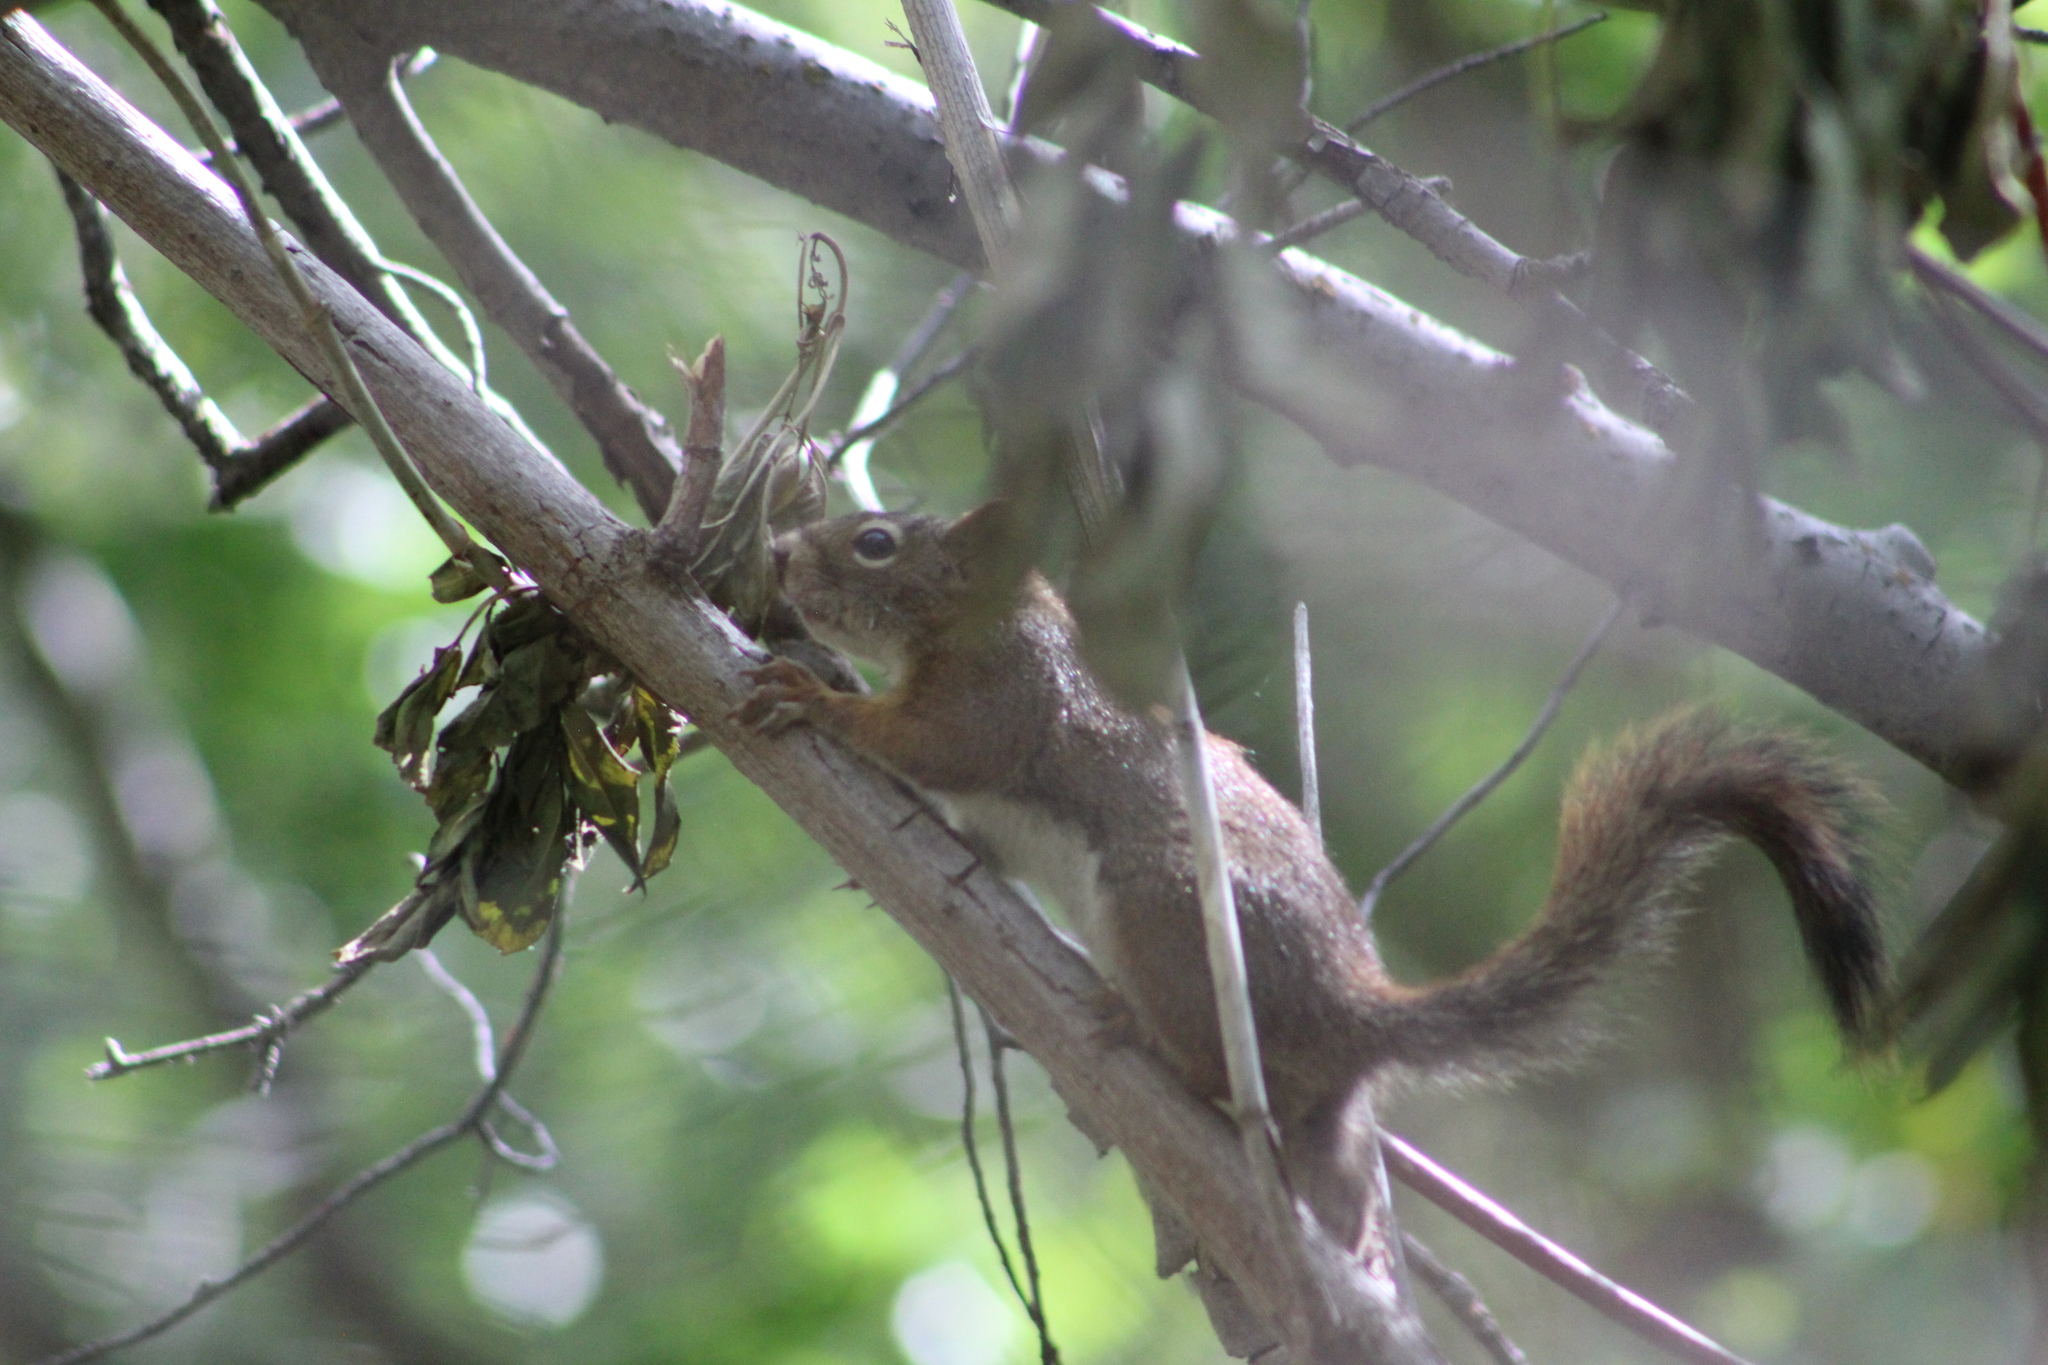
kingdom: Animalia
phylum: Chordata
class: Mammalia
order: Rodentia
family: Sciuridae
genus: Tamiasciurus
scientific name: Tamiasciurus hudsonicus
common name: Red squirrel
